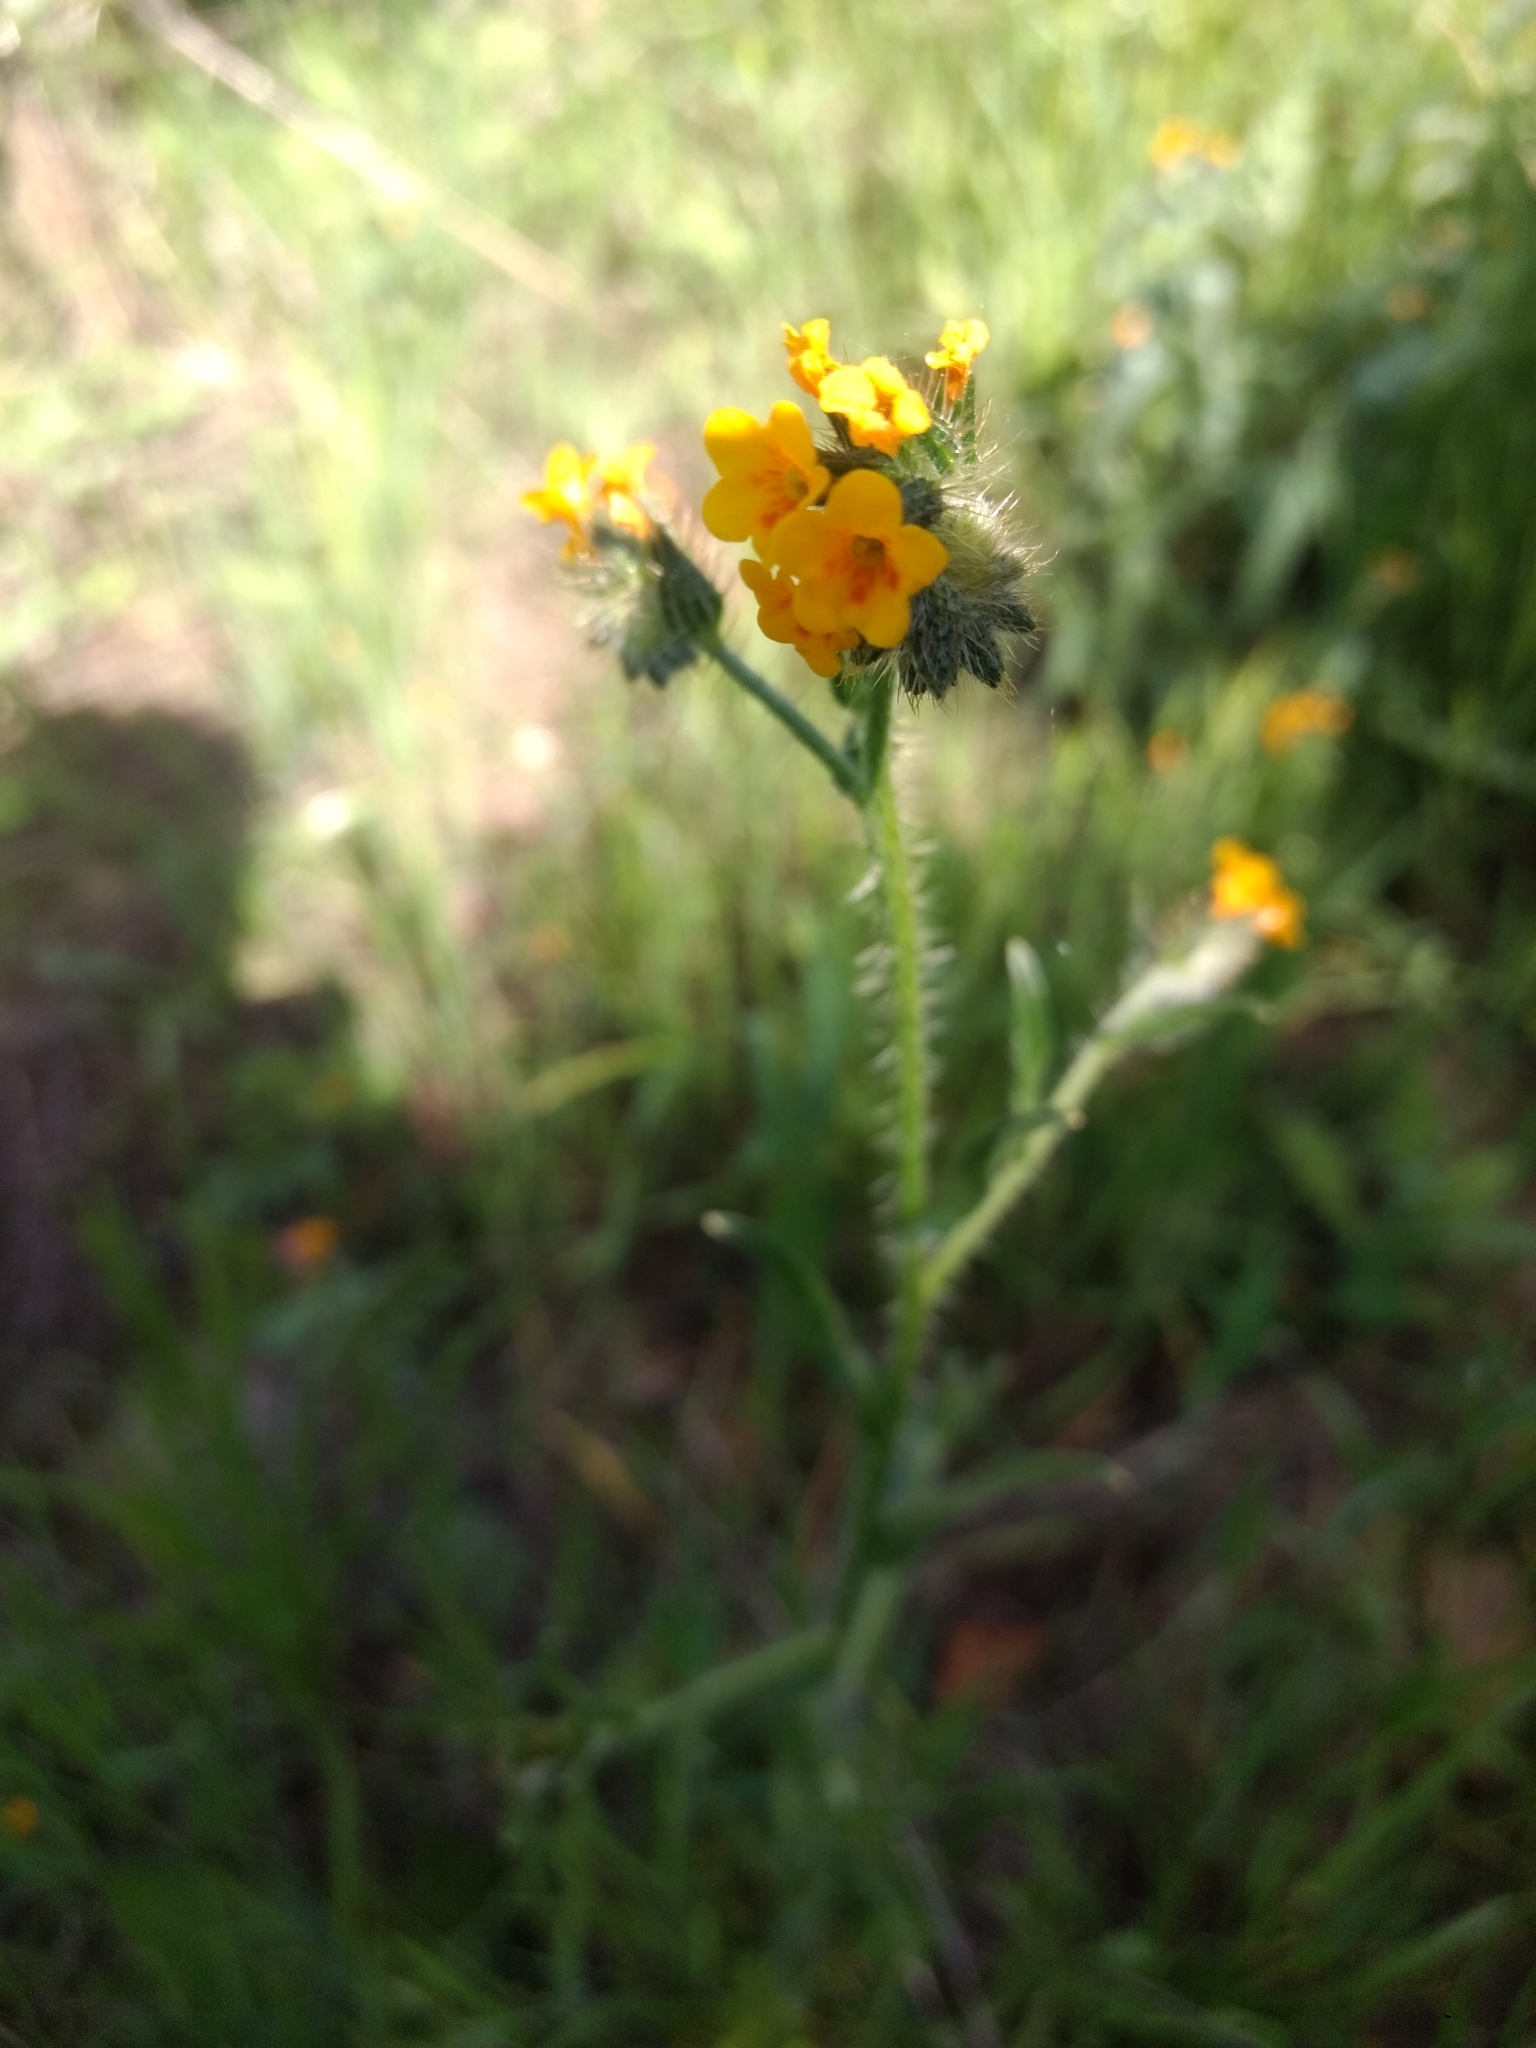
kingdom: Plantae
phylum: Tracheophyta
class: Magnoliopsida
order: Boraginales
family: Boraginaceae
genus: Amsinckia
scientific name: Amsinckia menziesii
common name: Menzies' fiddleneck
